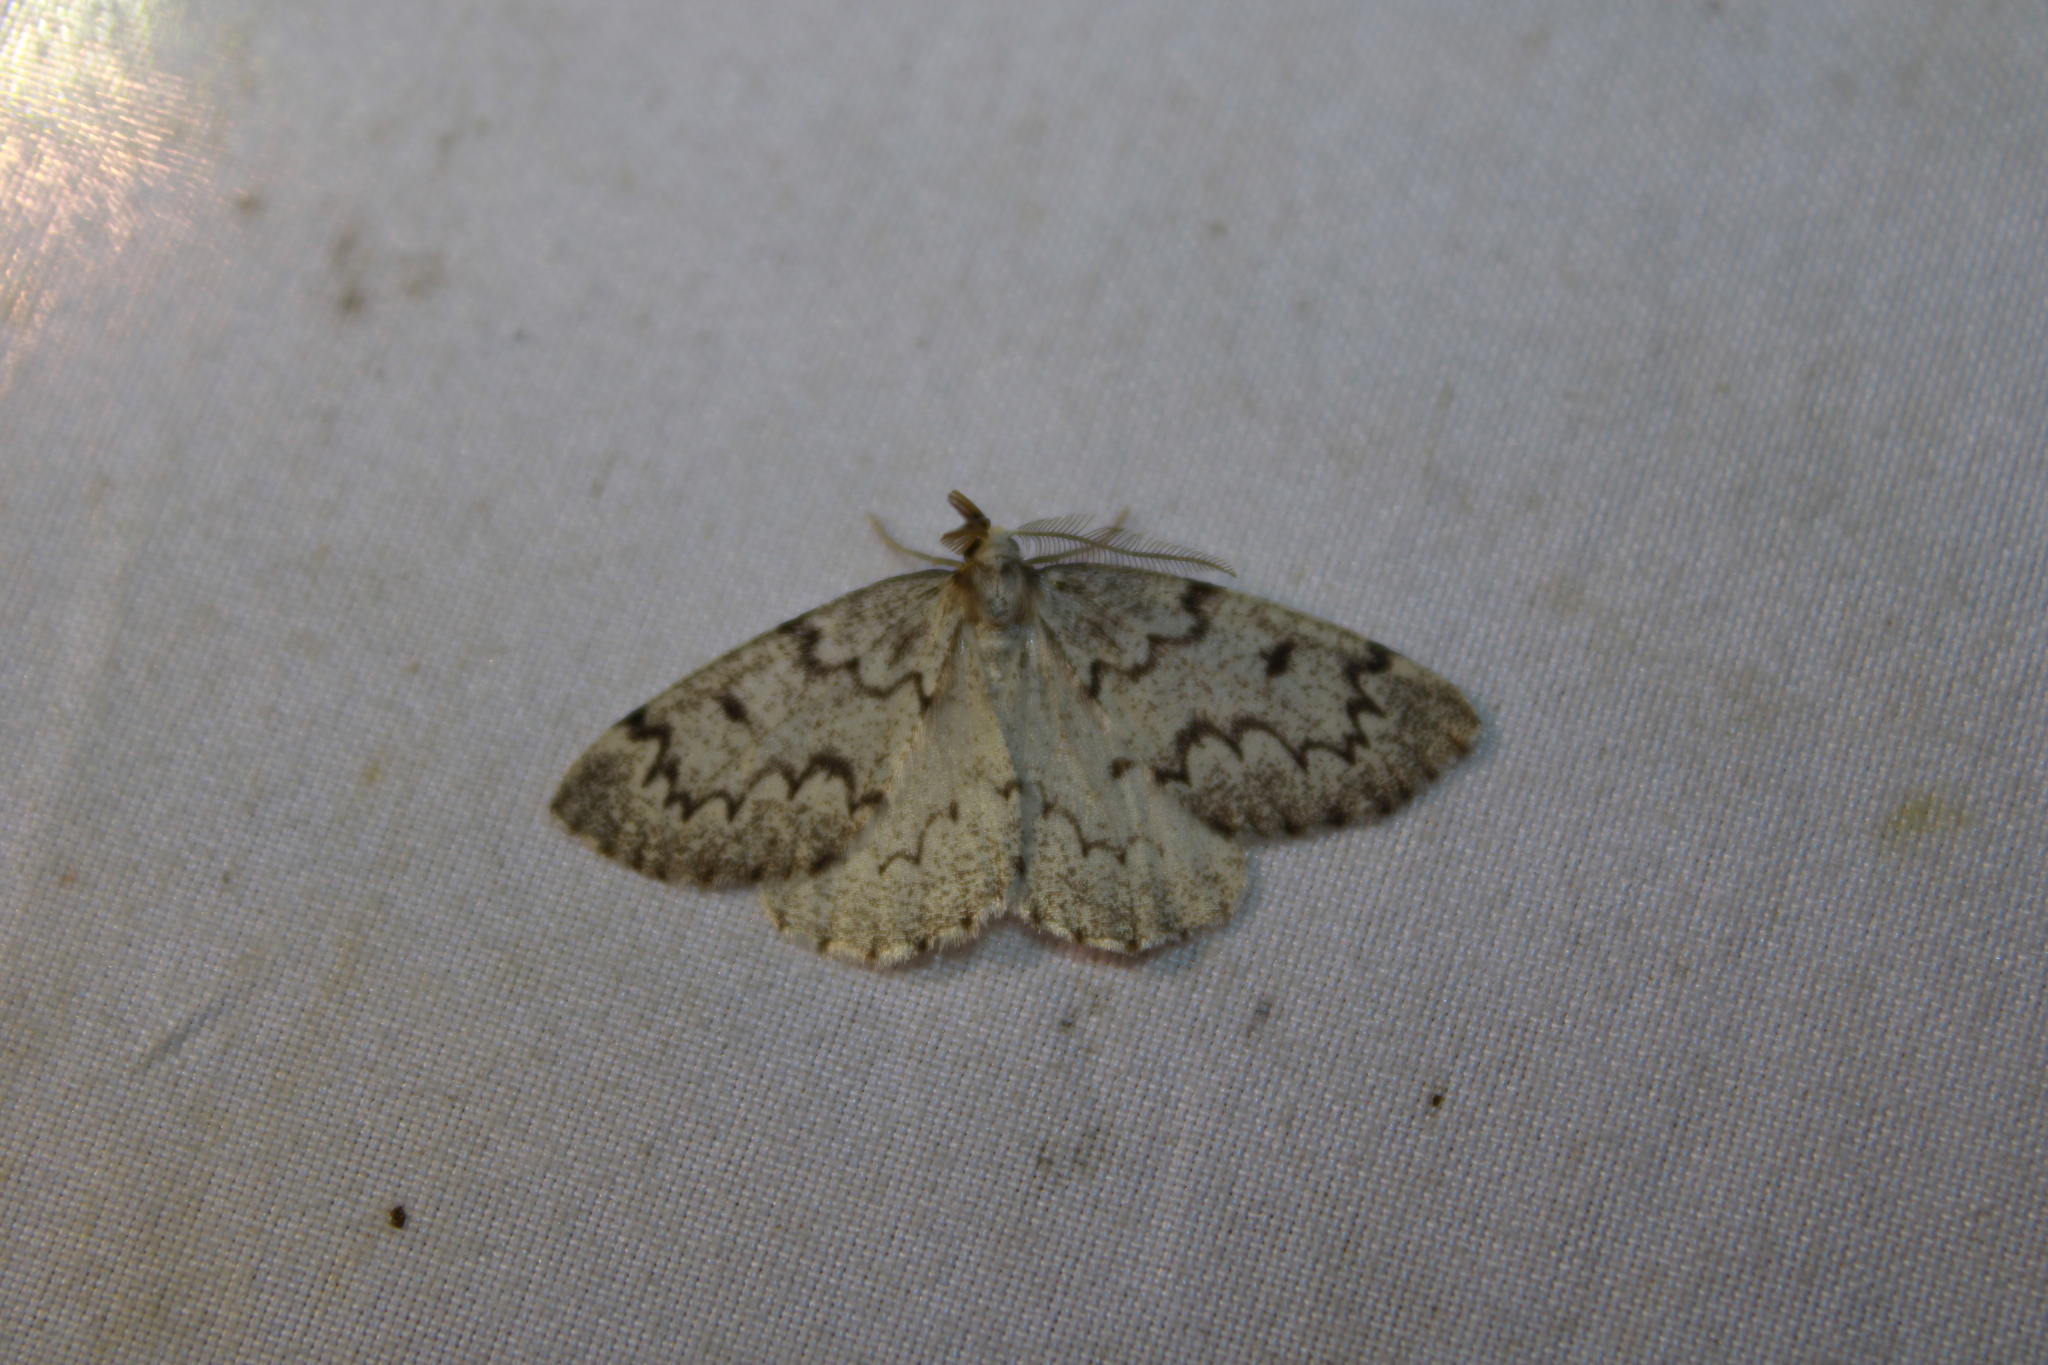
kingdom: Animalia
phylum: Arthropoda
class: Insecta
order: Lepidoptera
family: Geometridae
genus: Nepytia
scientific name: Nepytia canosaria
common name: False hemlock looper
